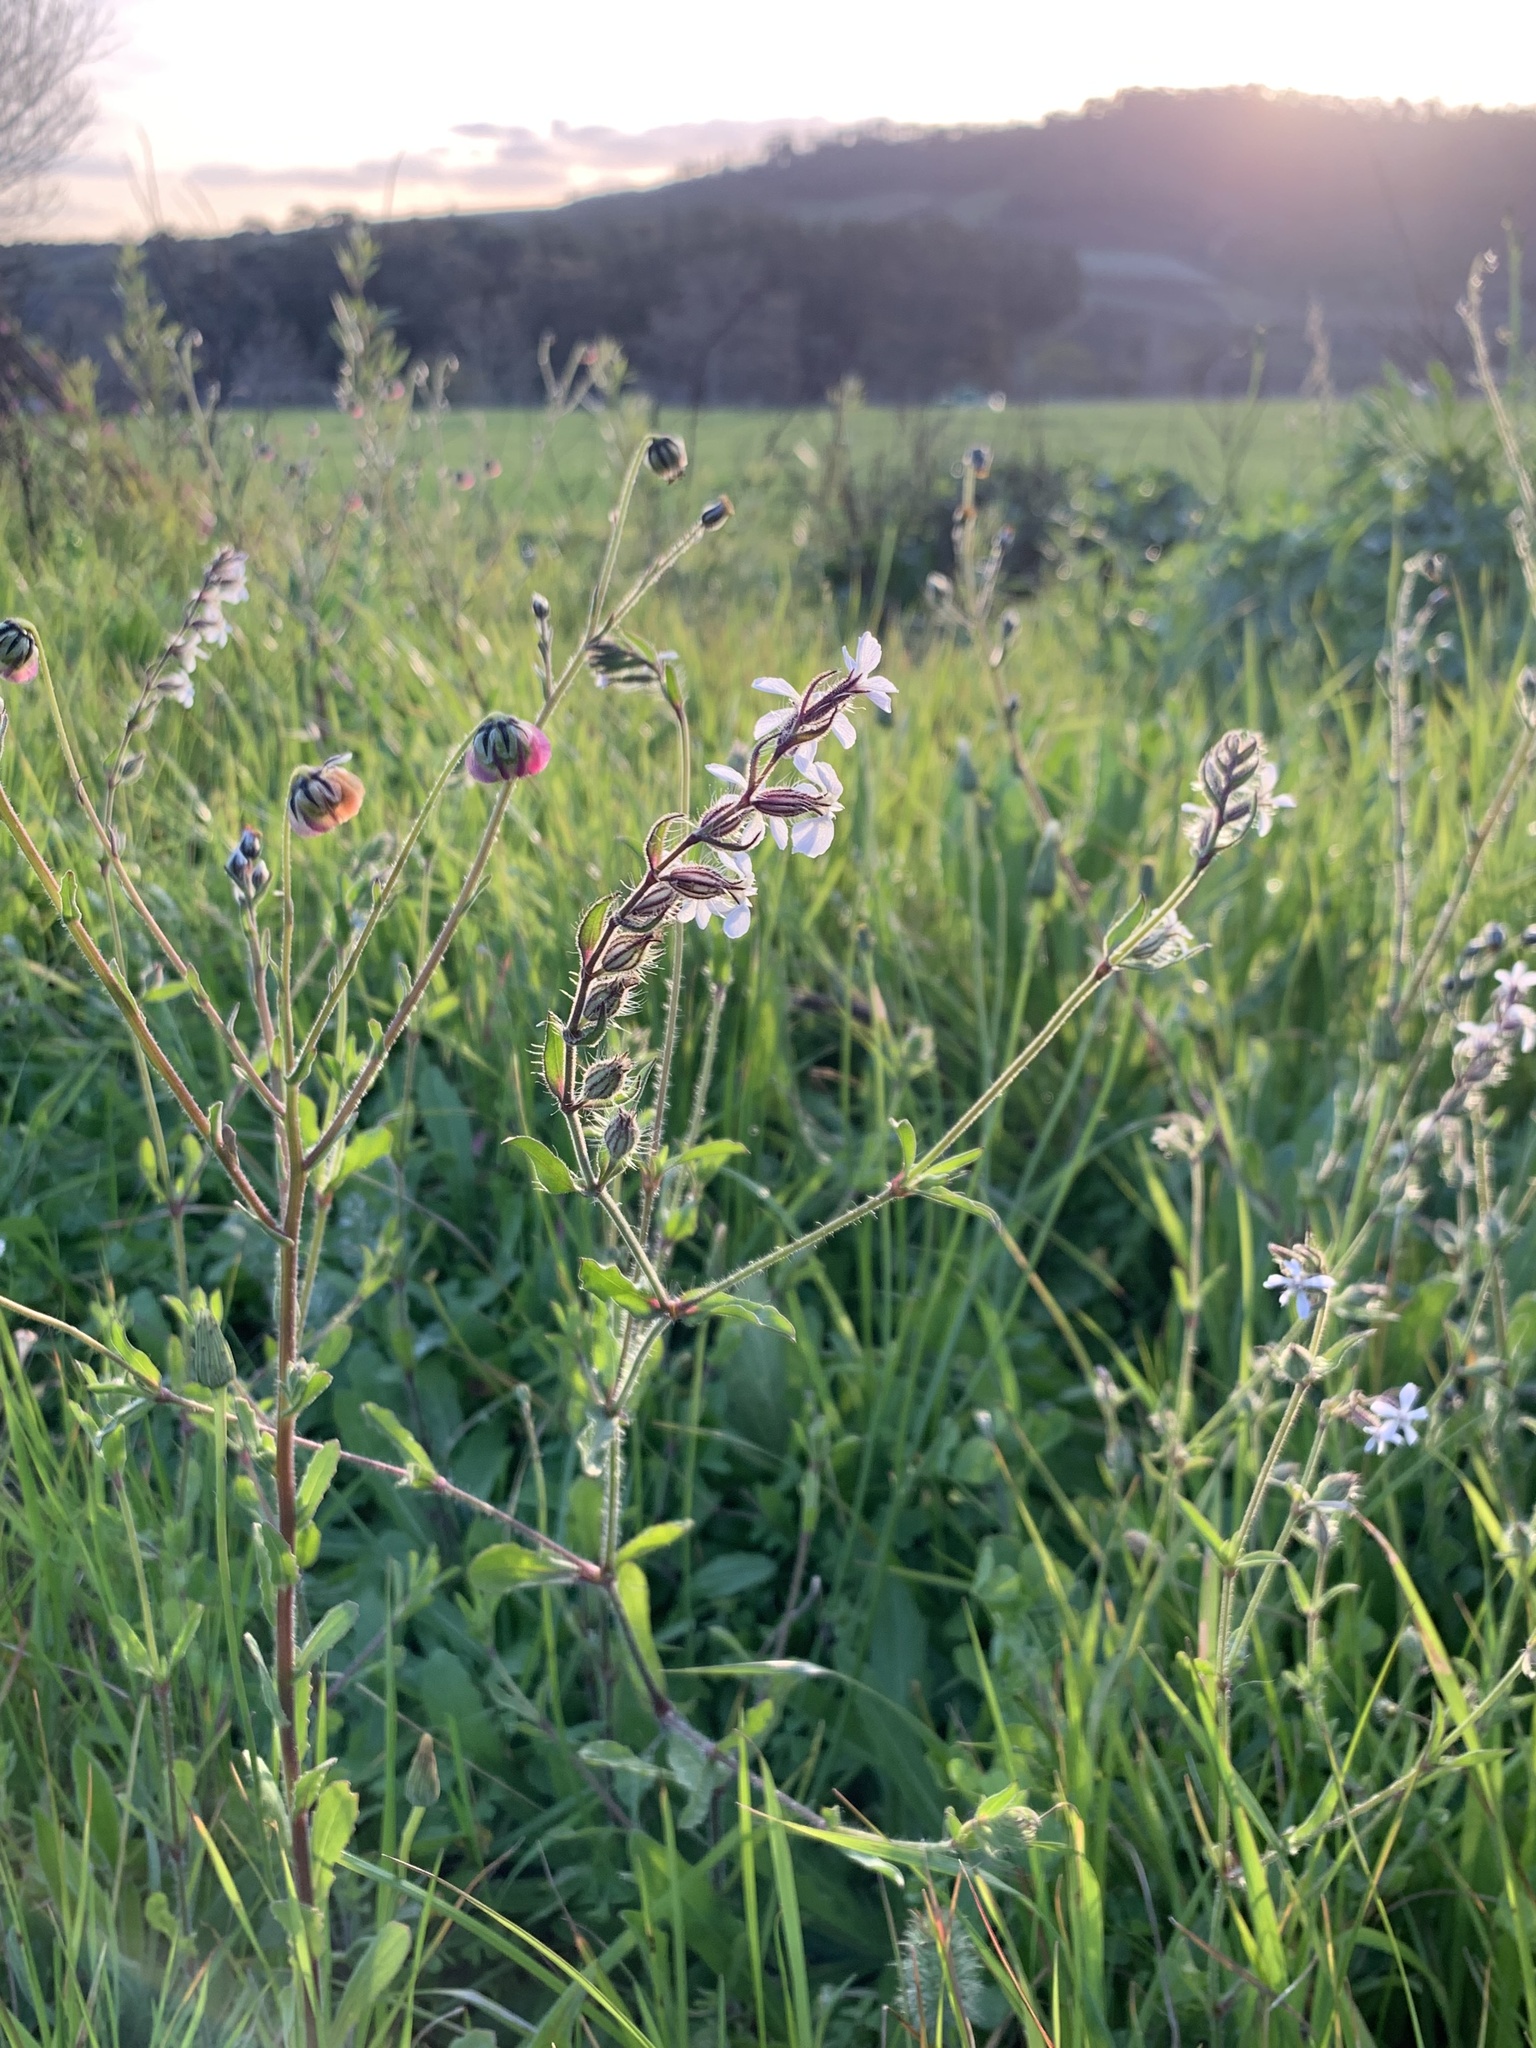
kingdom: Plantae
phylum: Tracheophyta
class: Magnoliopsida
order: Caryophyllales
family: Caryophyllaceae
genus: Silene
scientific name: Silene gallica
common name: Small-flowered catchfly
